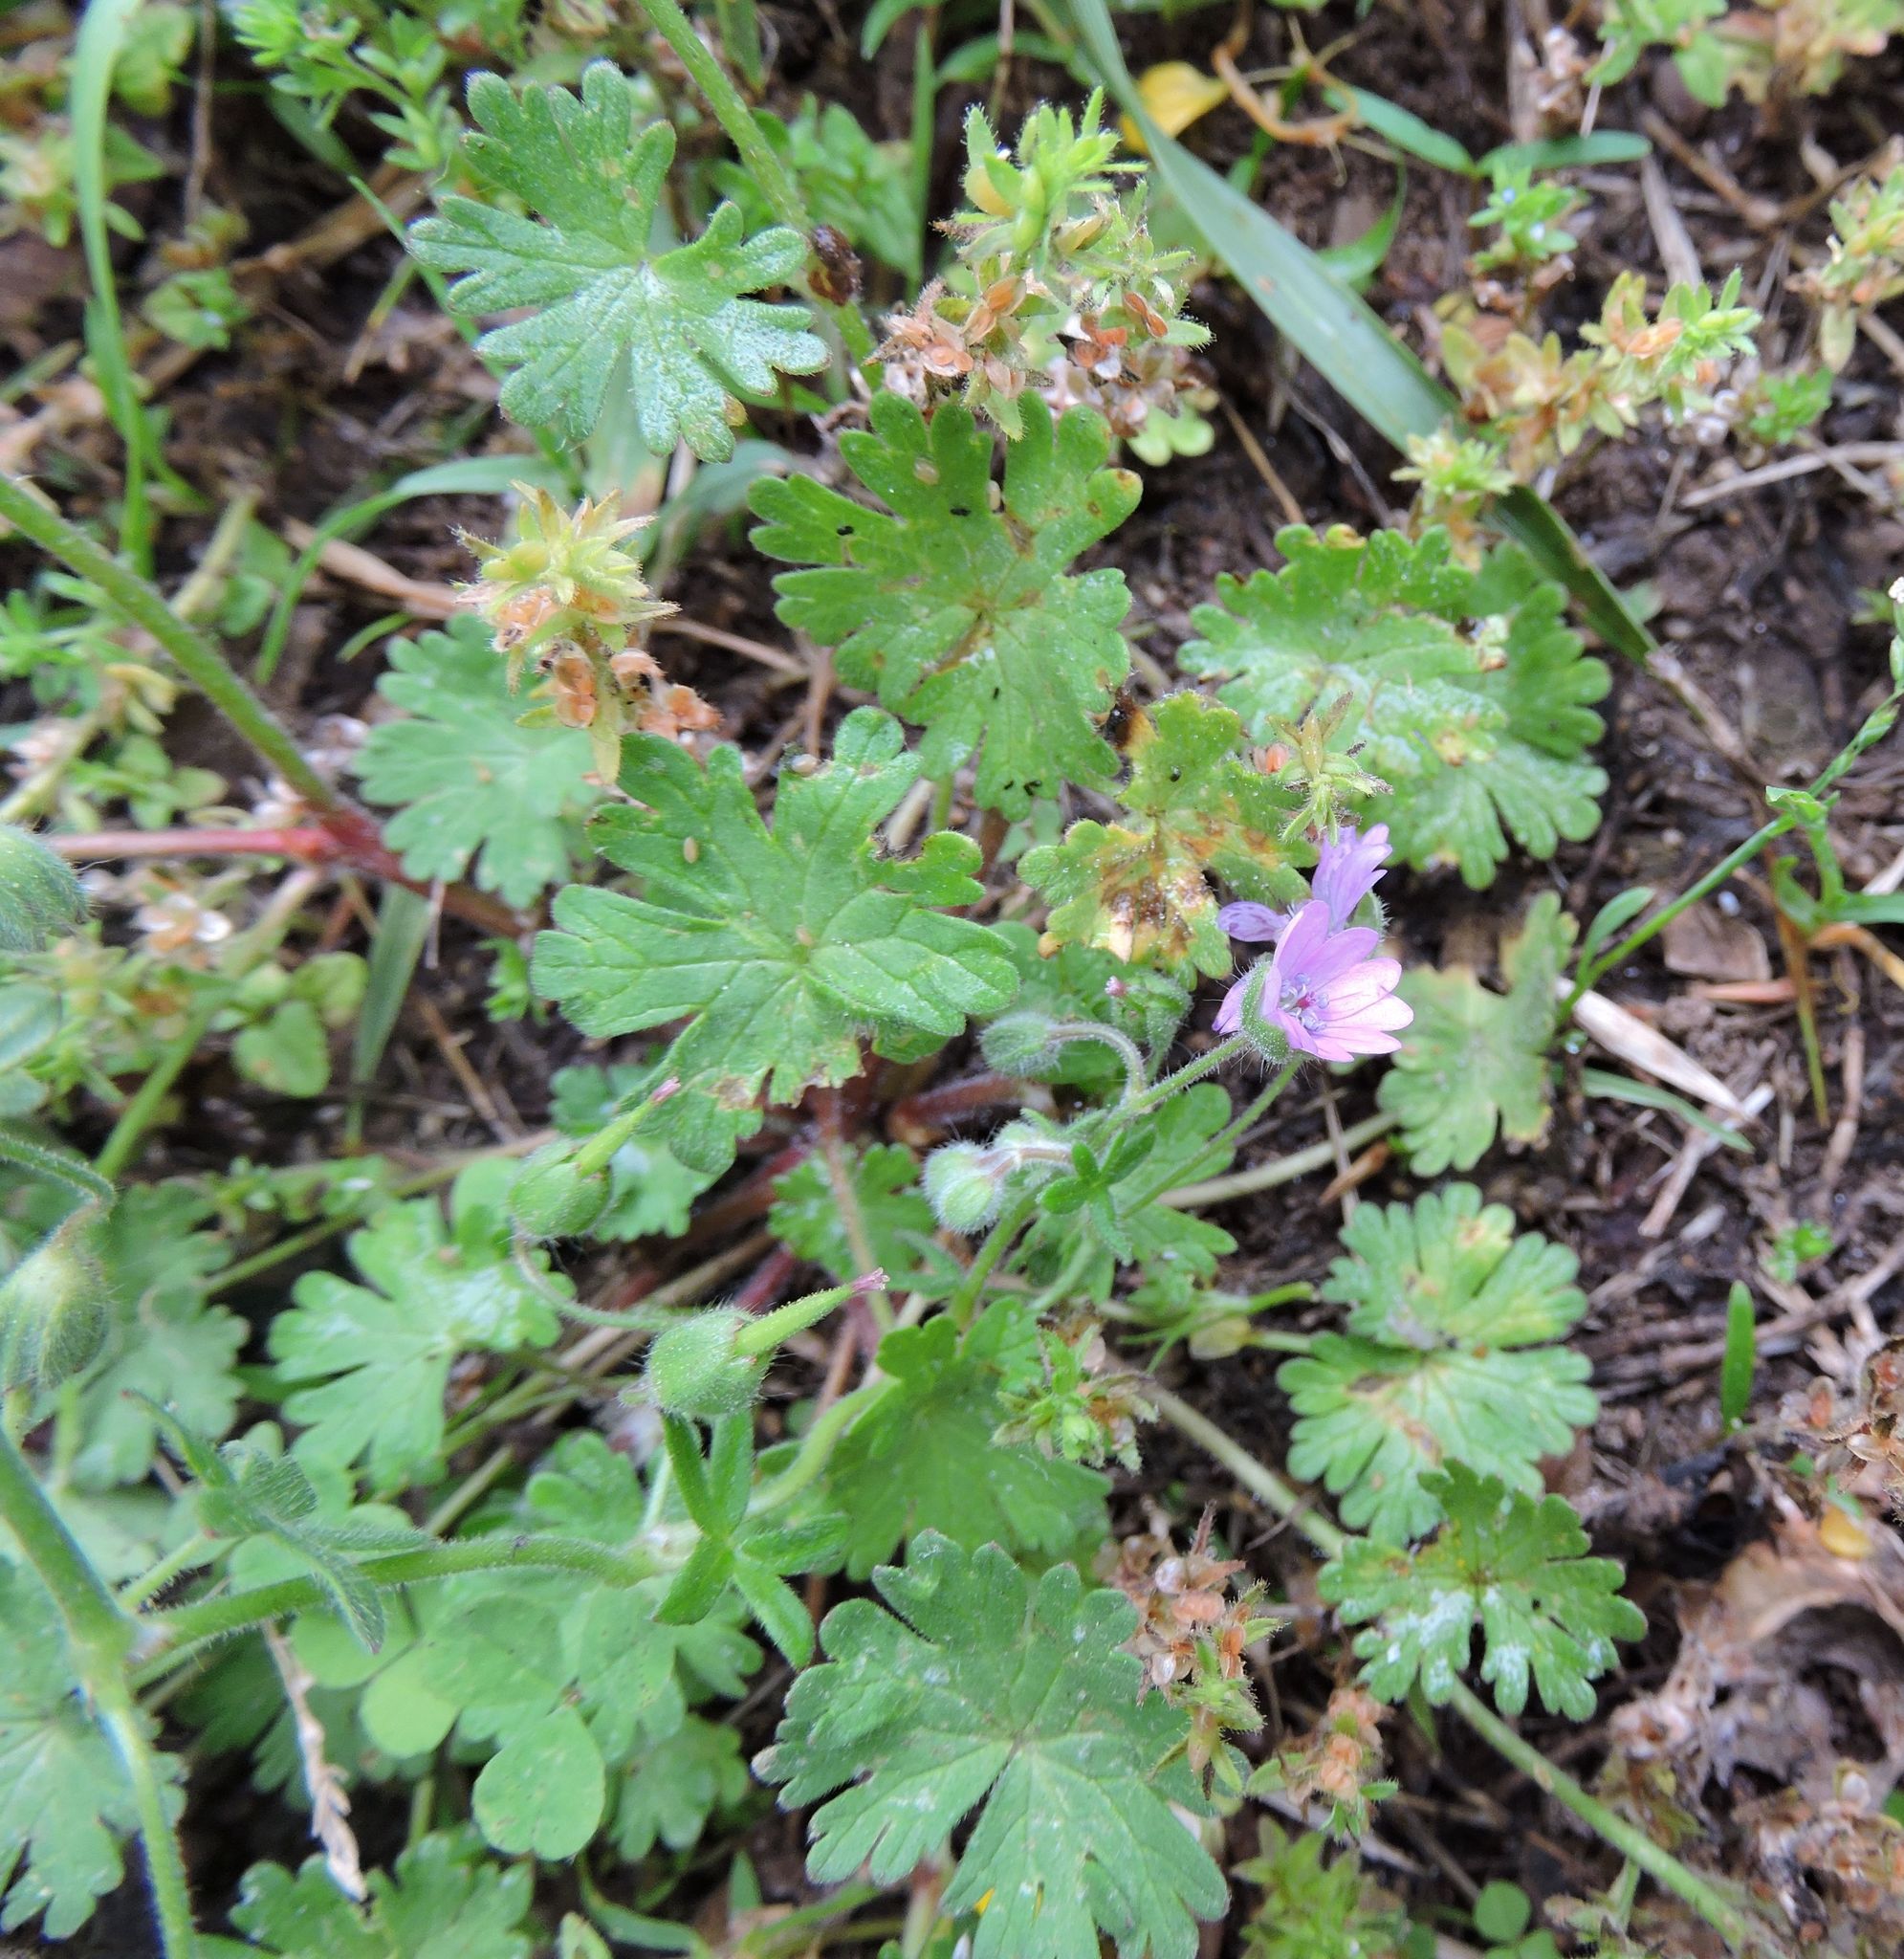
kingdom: Plantae
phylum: Tracheophyta
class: Magnoliopsida
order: Geraniales
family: Geraniaceae
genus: Geranium
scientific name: Geranium molle
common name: Dove's-foot crane's-bill
